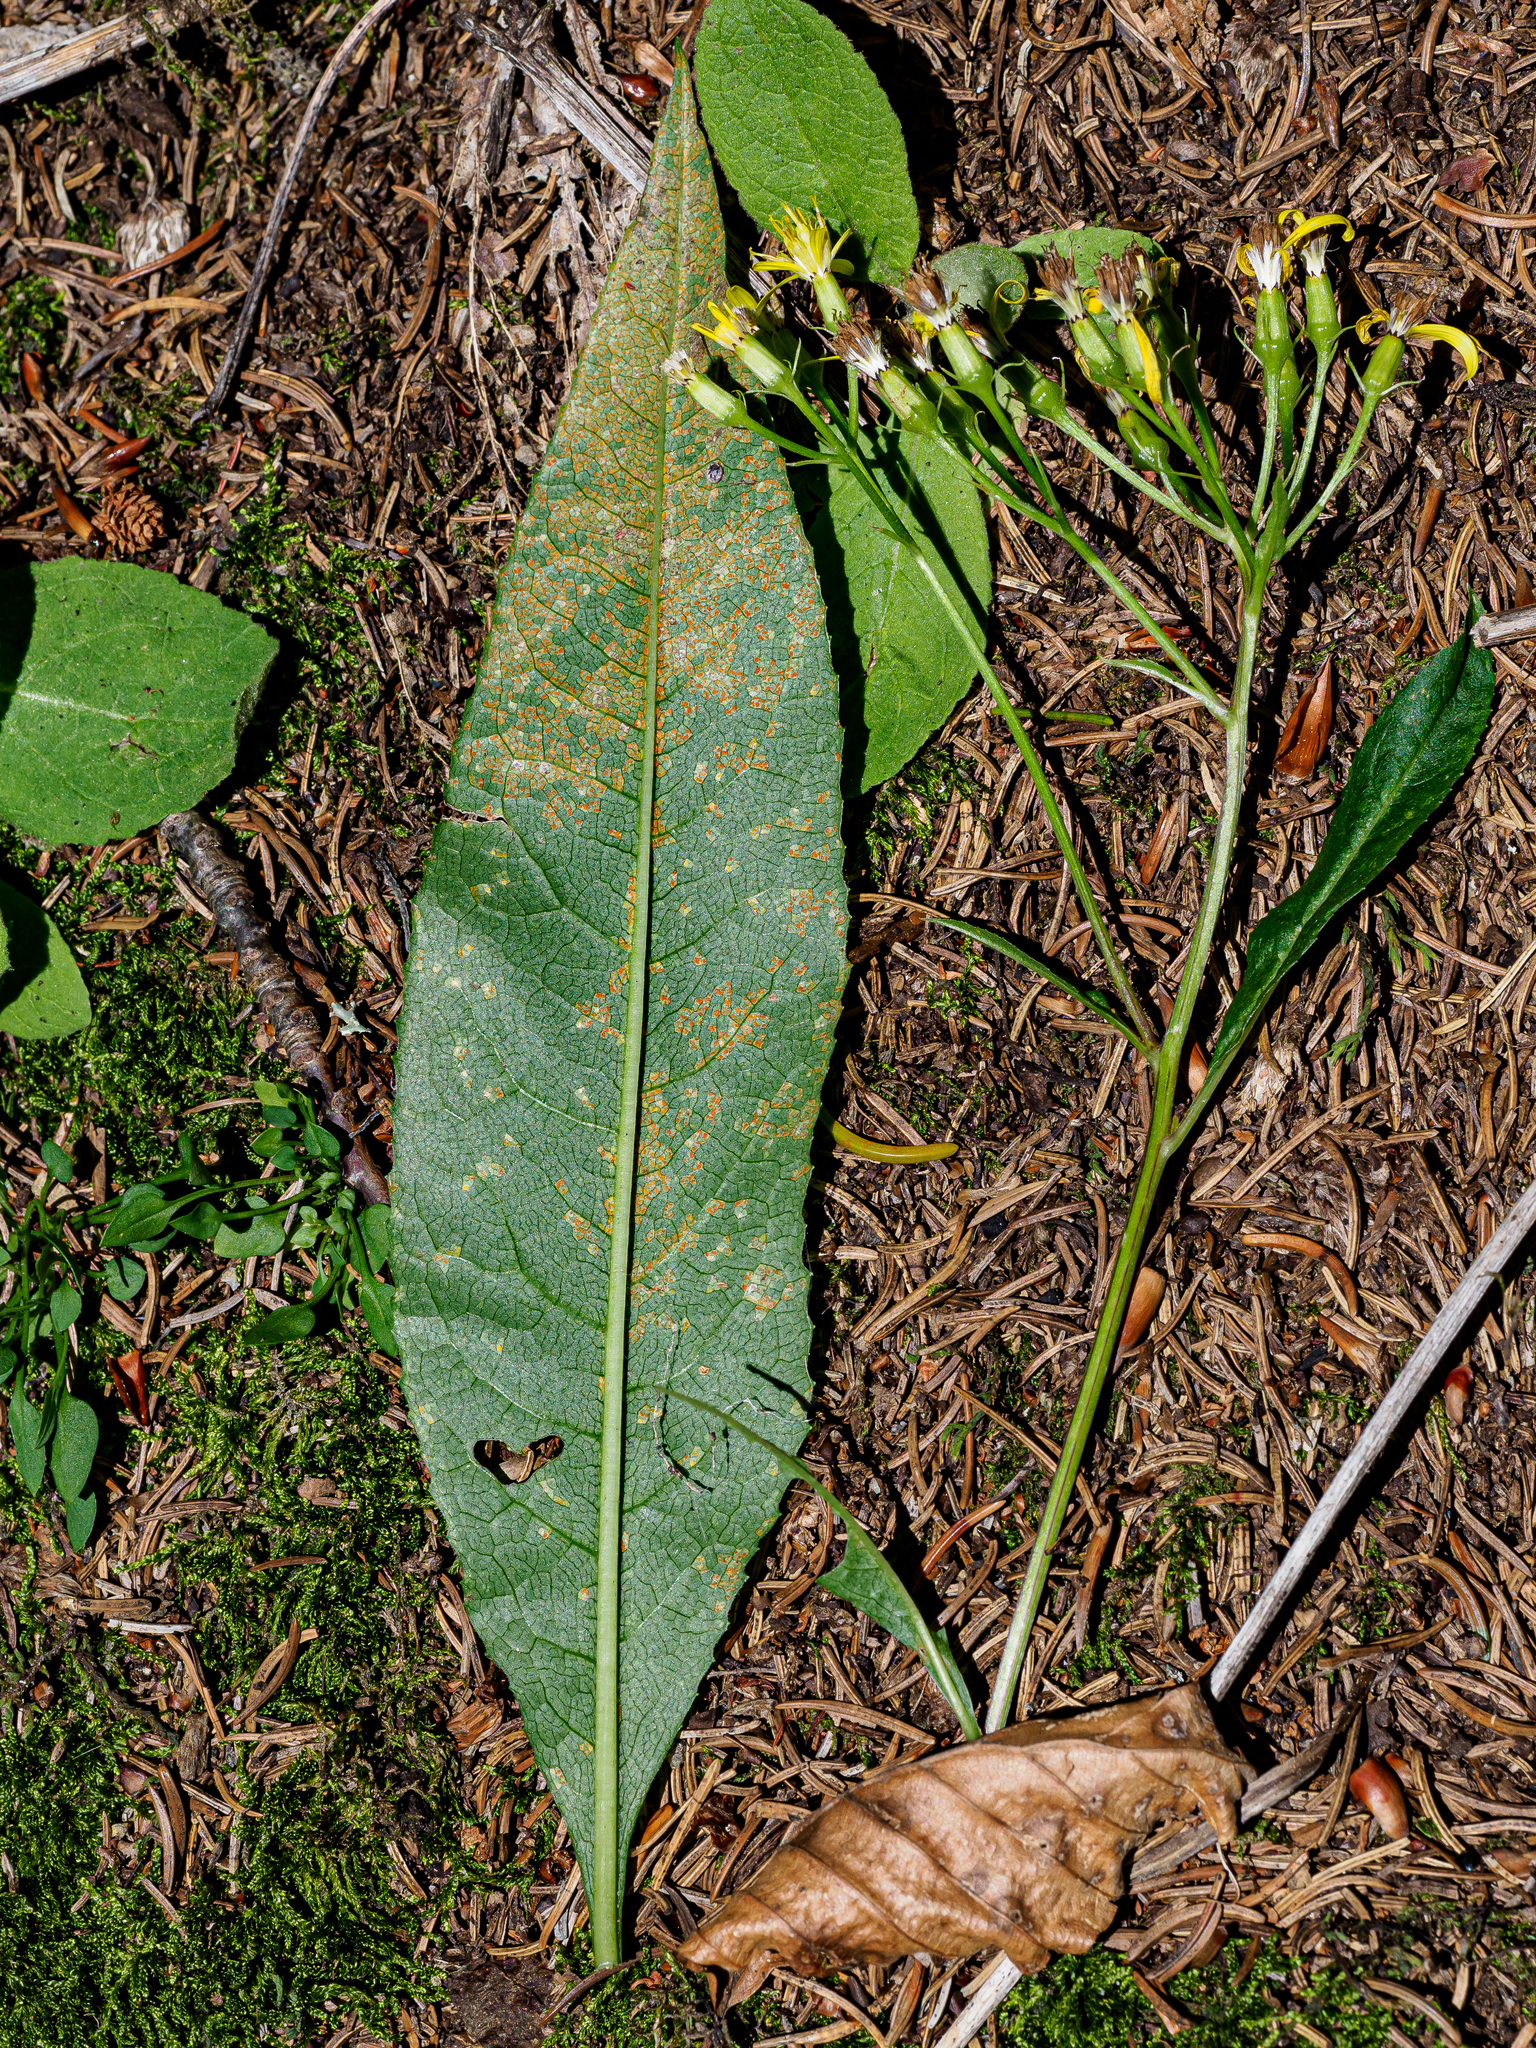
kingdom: Fungi
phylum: Basidiomycota
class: Pucciniomycetes
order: Pucciniales
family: Coleosporiaceae
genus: Coleosporium
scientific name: Coleosporium senecionis
